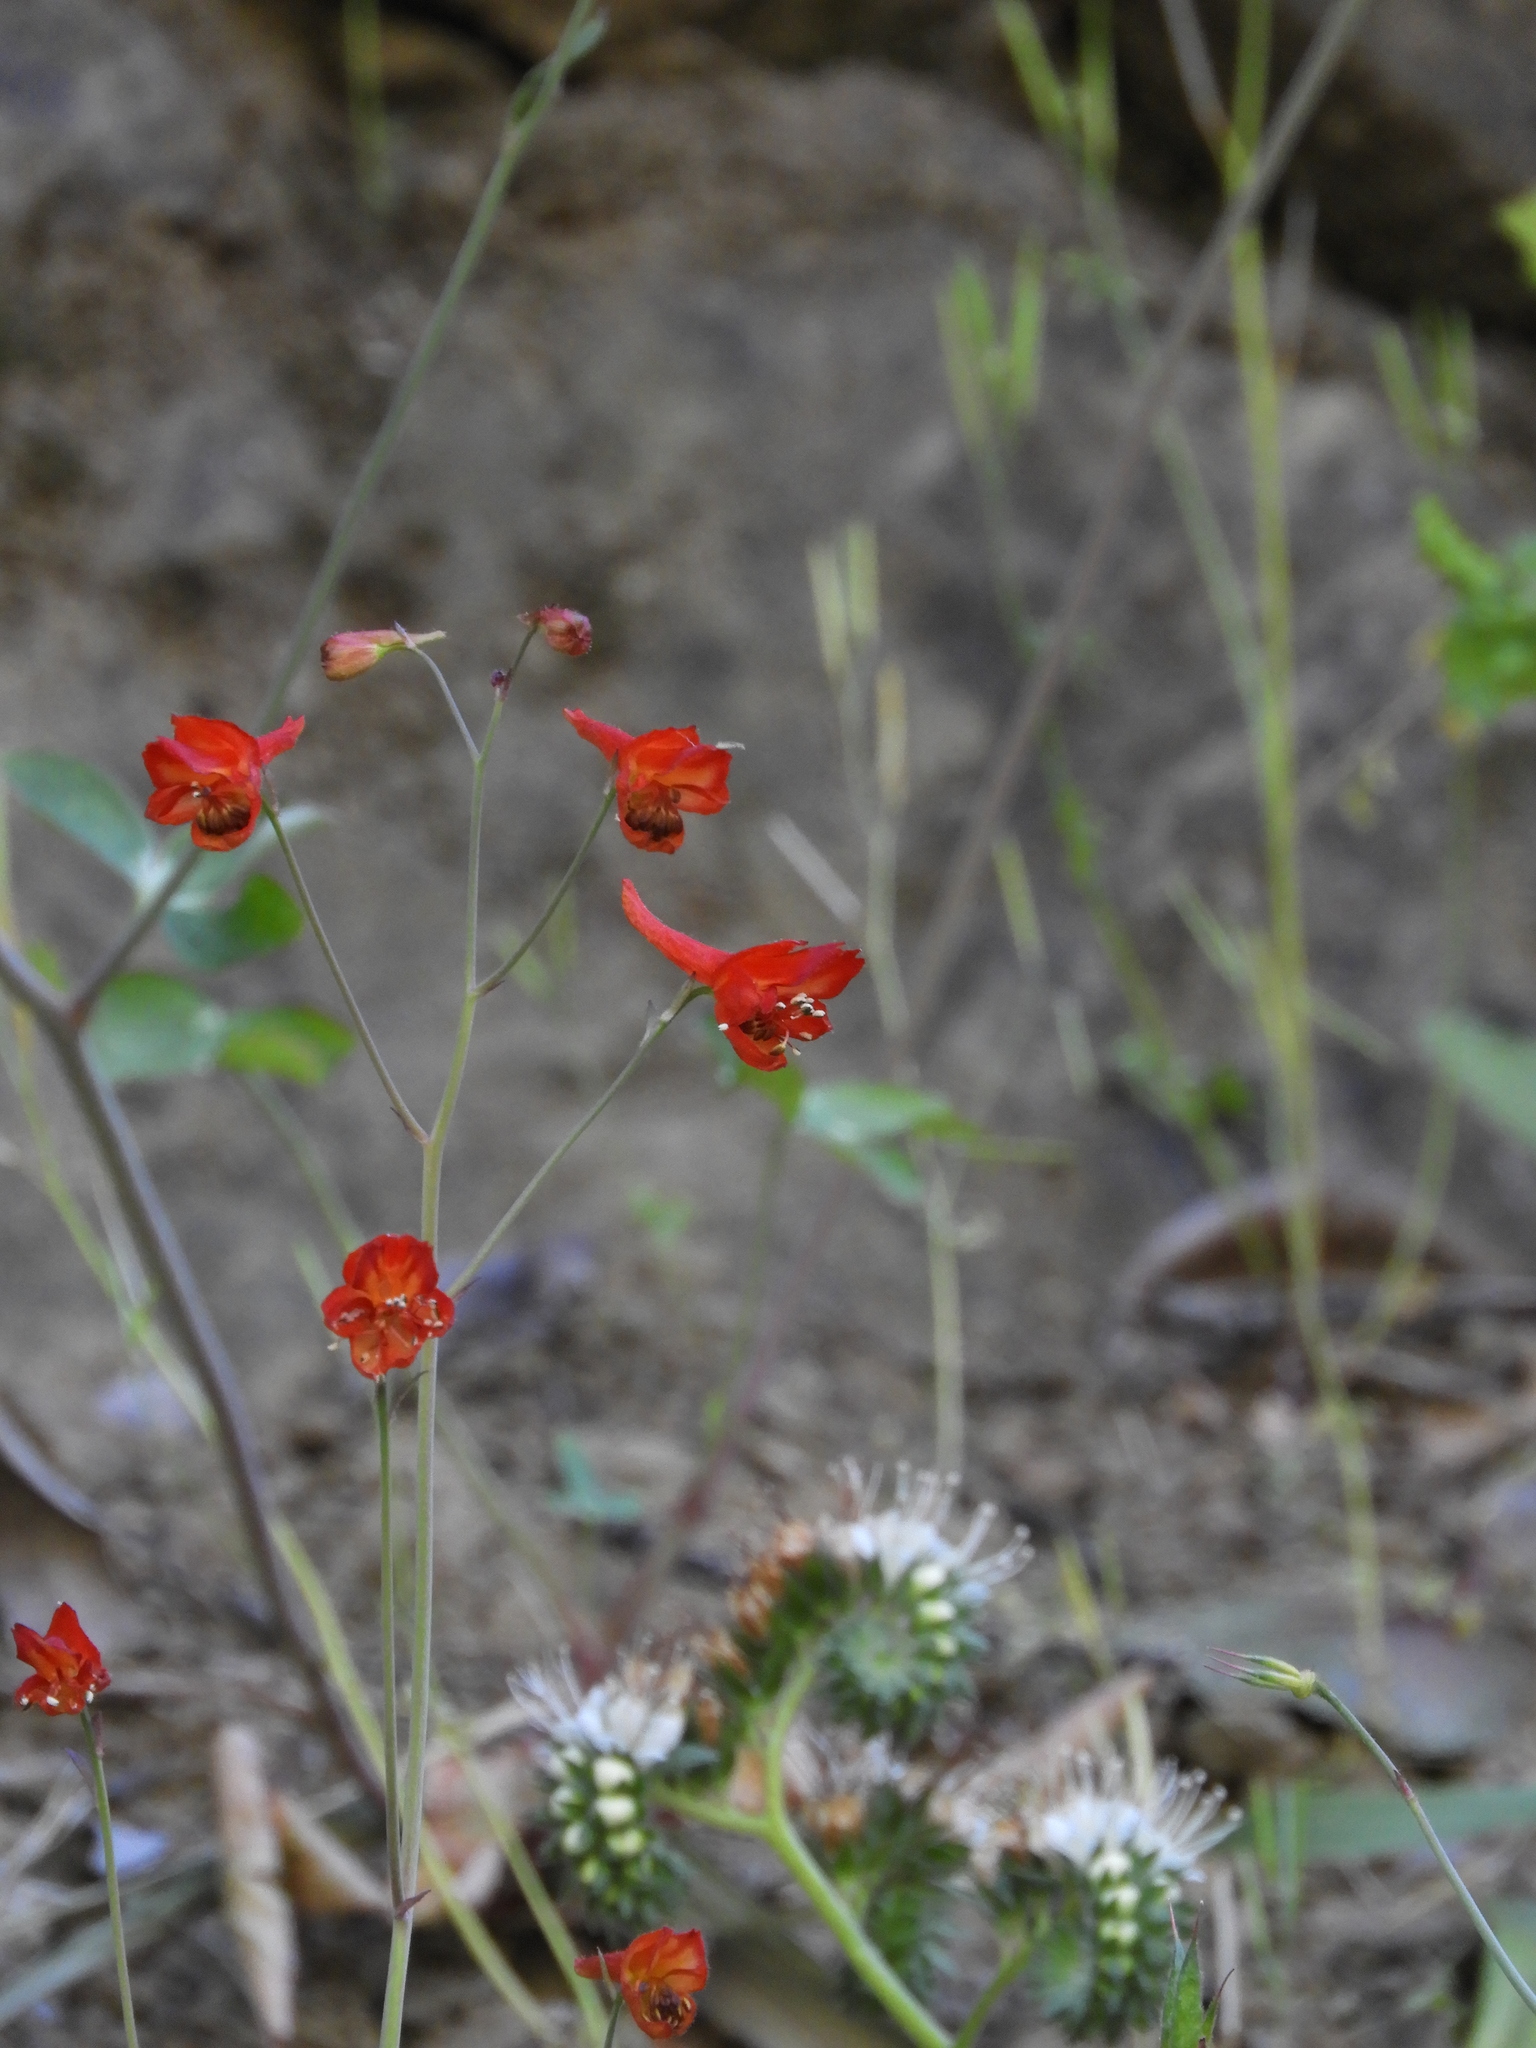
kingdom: Plantae
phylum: Tracheophyta
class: Magnoliopsida
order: Ranunculales
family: Ranunculaceae
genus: Delphinium
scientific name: Delphinium nudicaule
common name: Red larkspur
